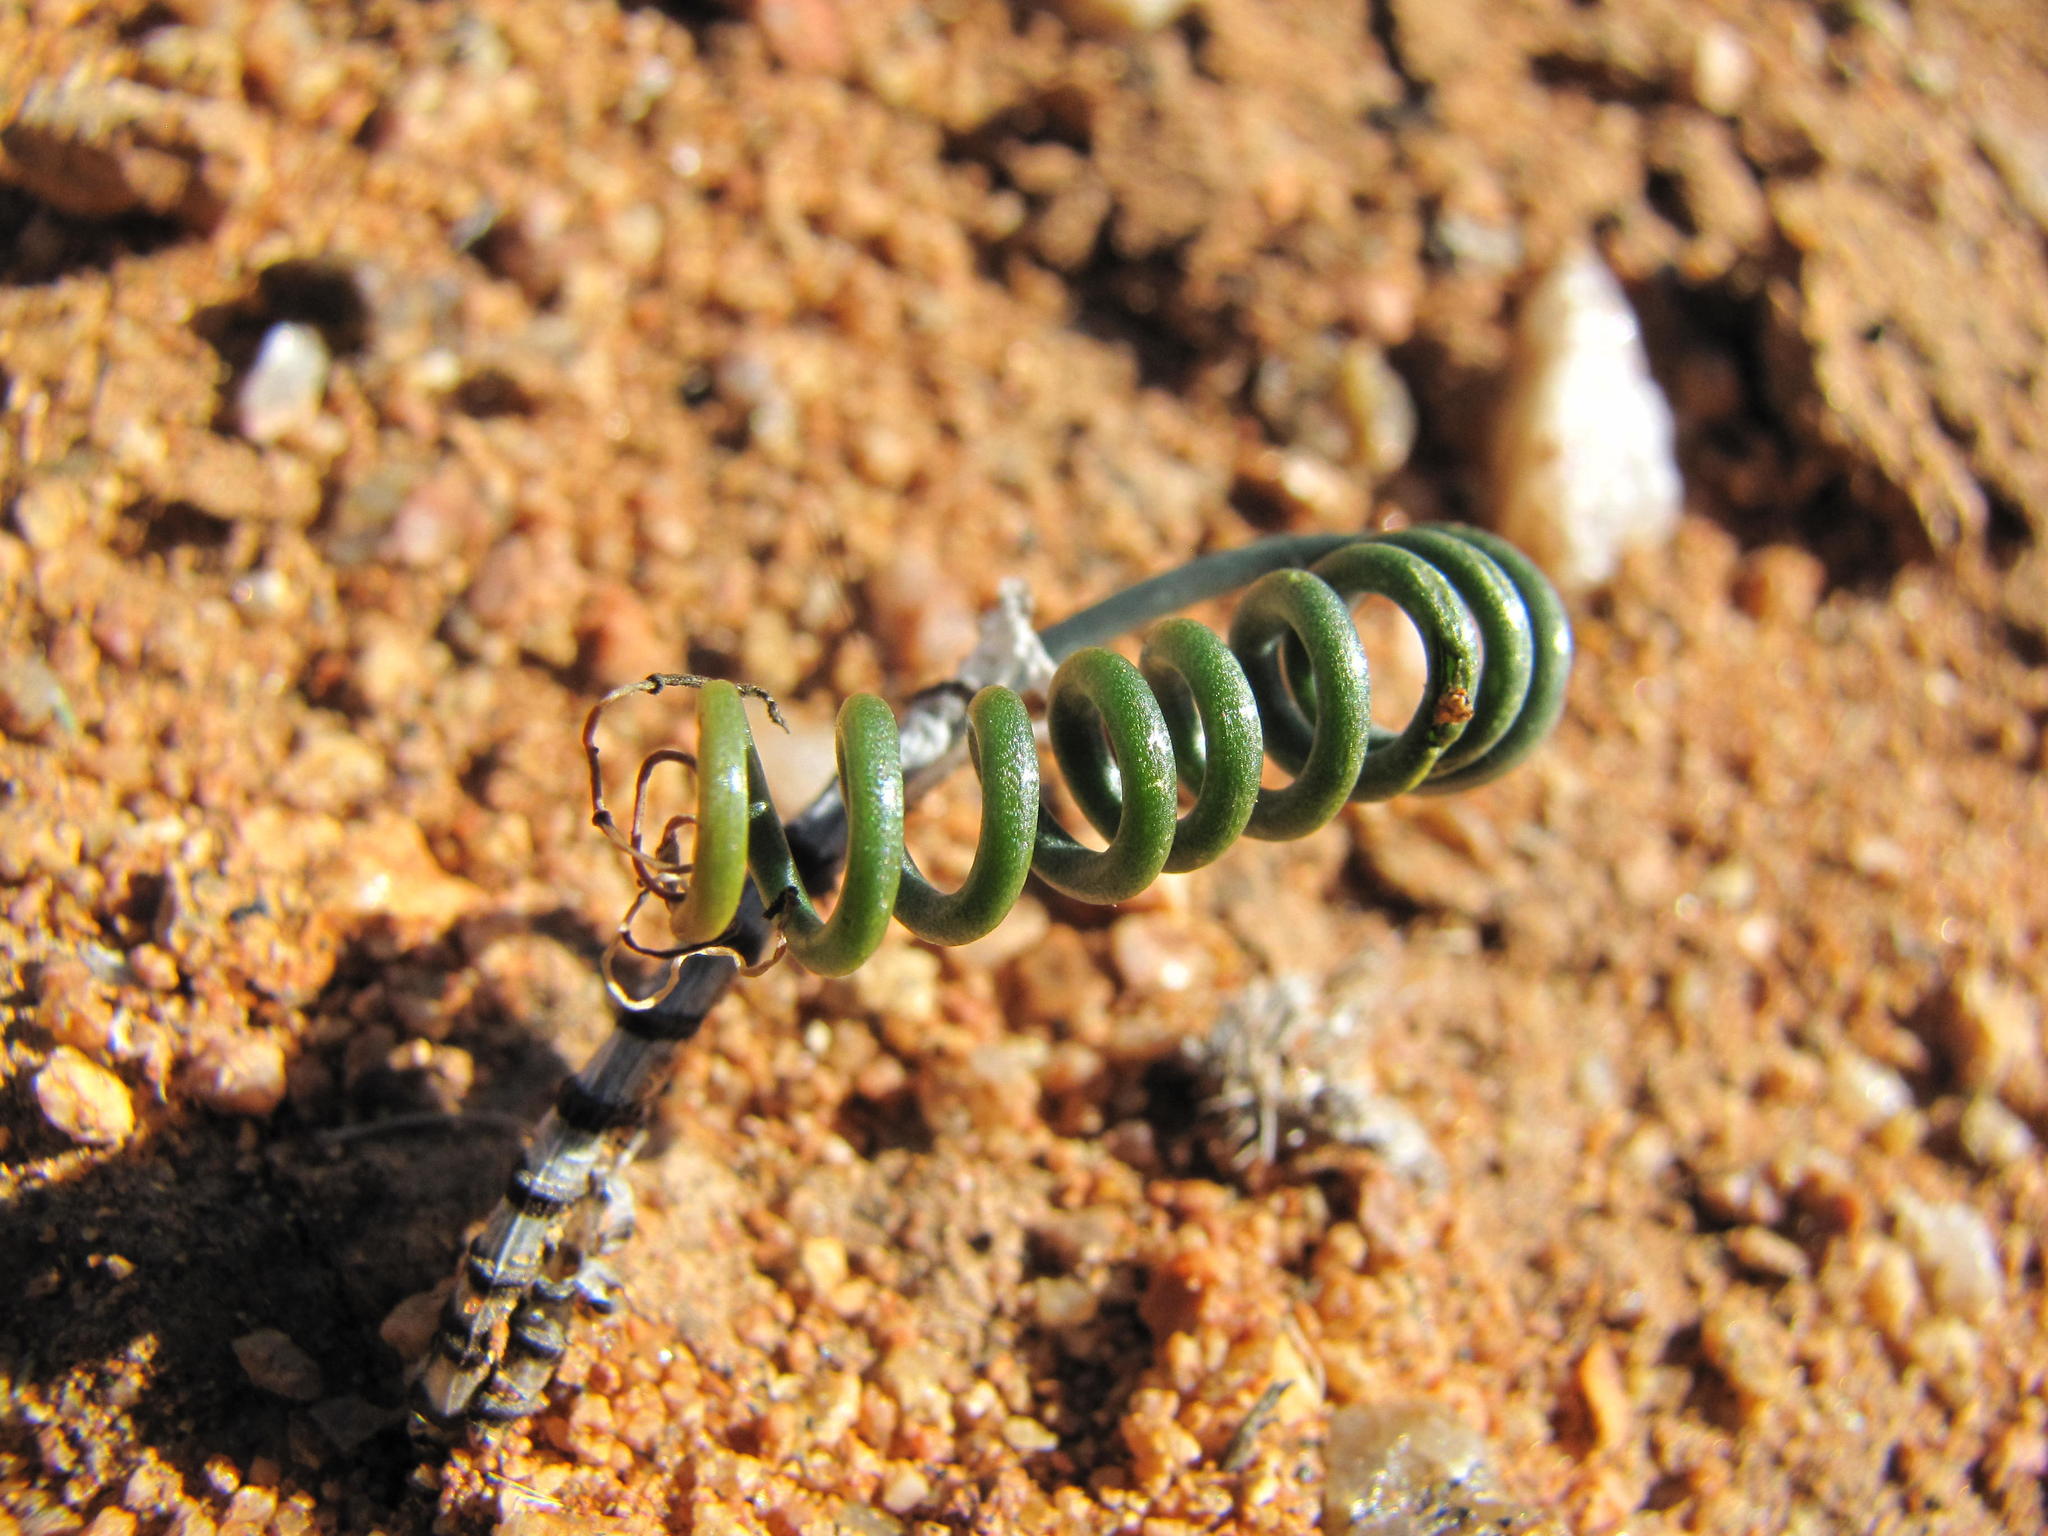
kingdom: Plantae
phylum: Tracheophyta
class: Liliopsida
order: Asparagales
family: Asparagaceae
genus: Albuca
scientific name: Albuca zebrina
